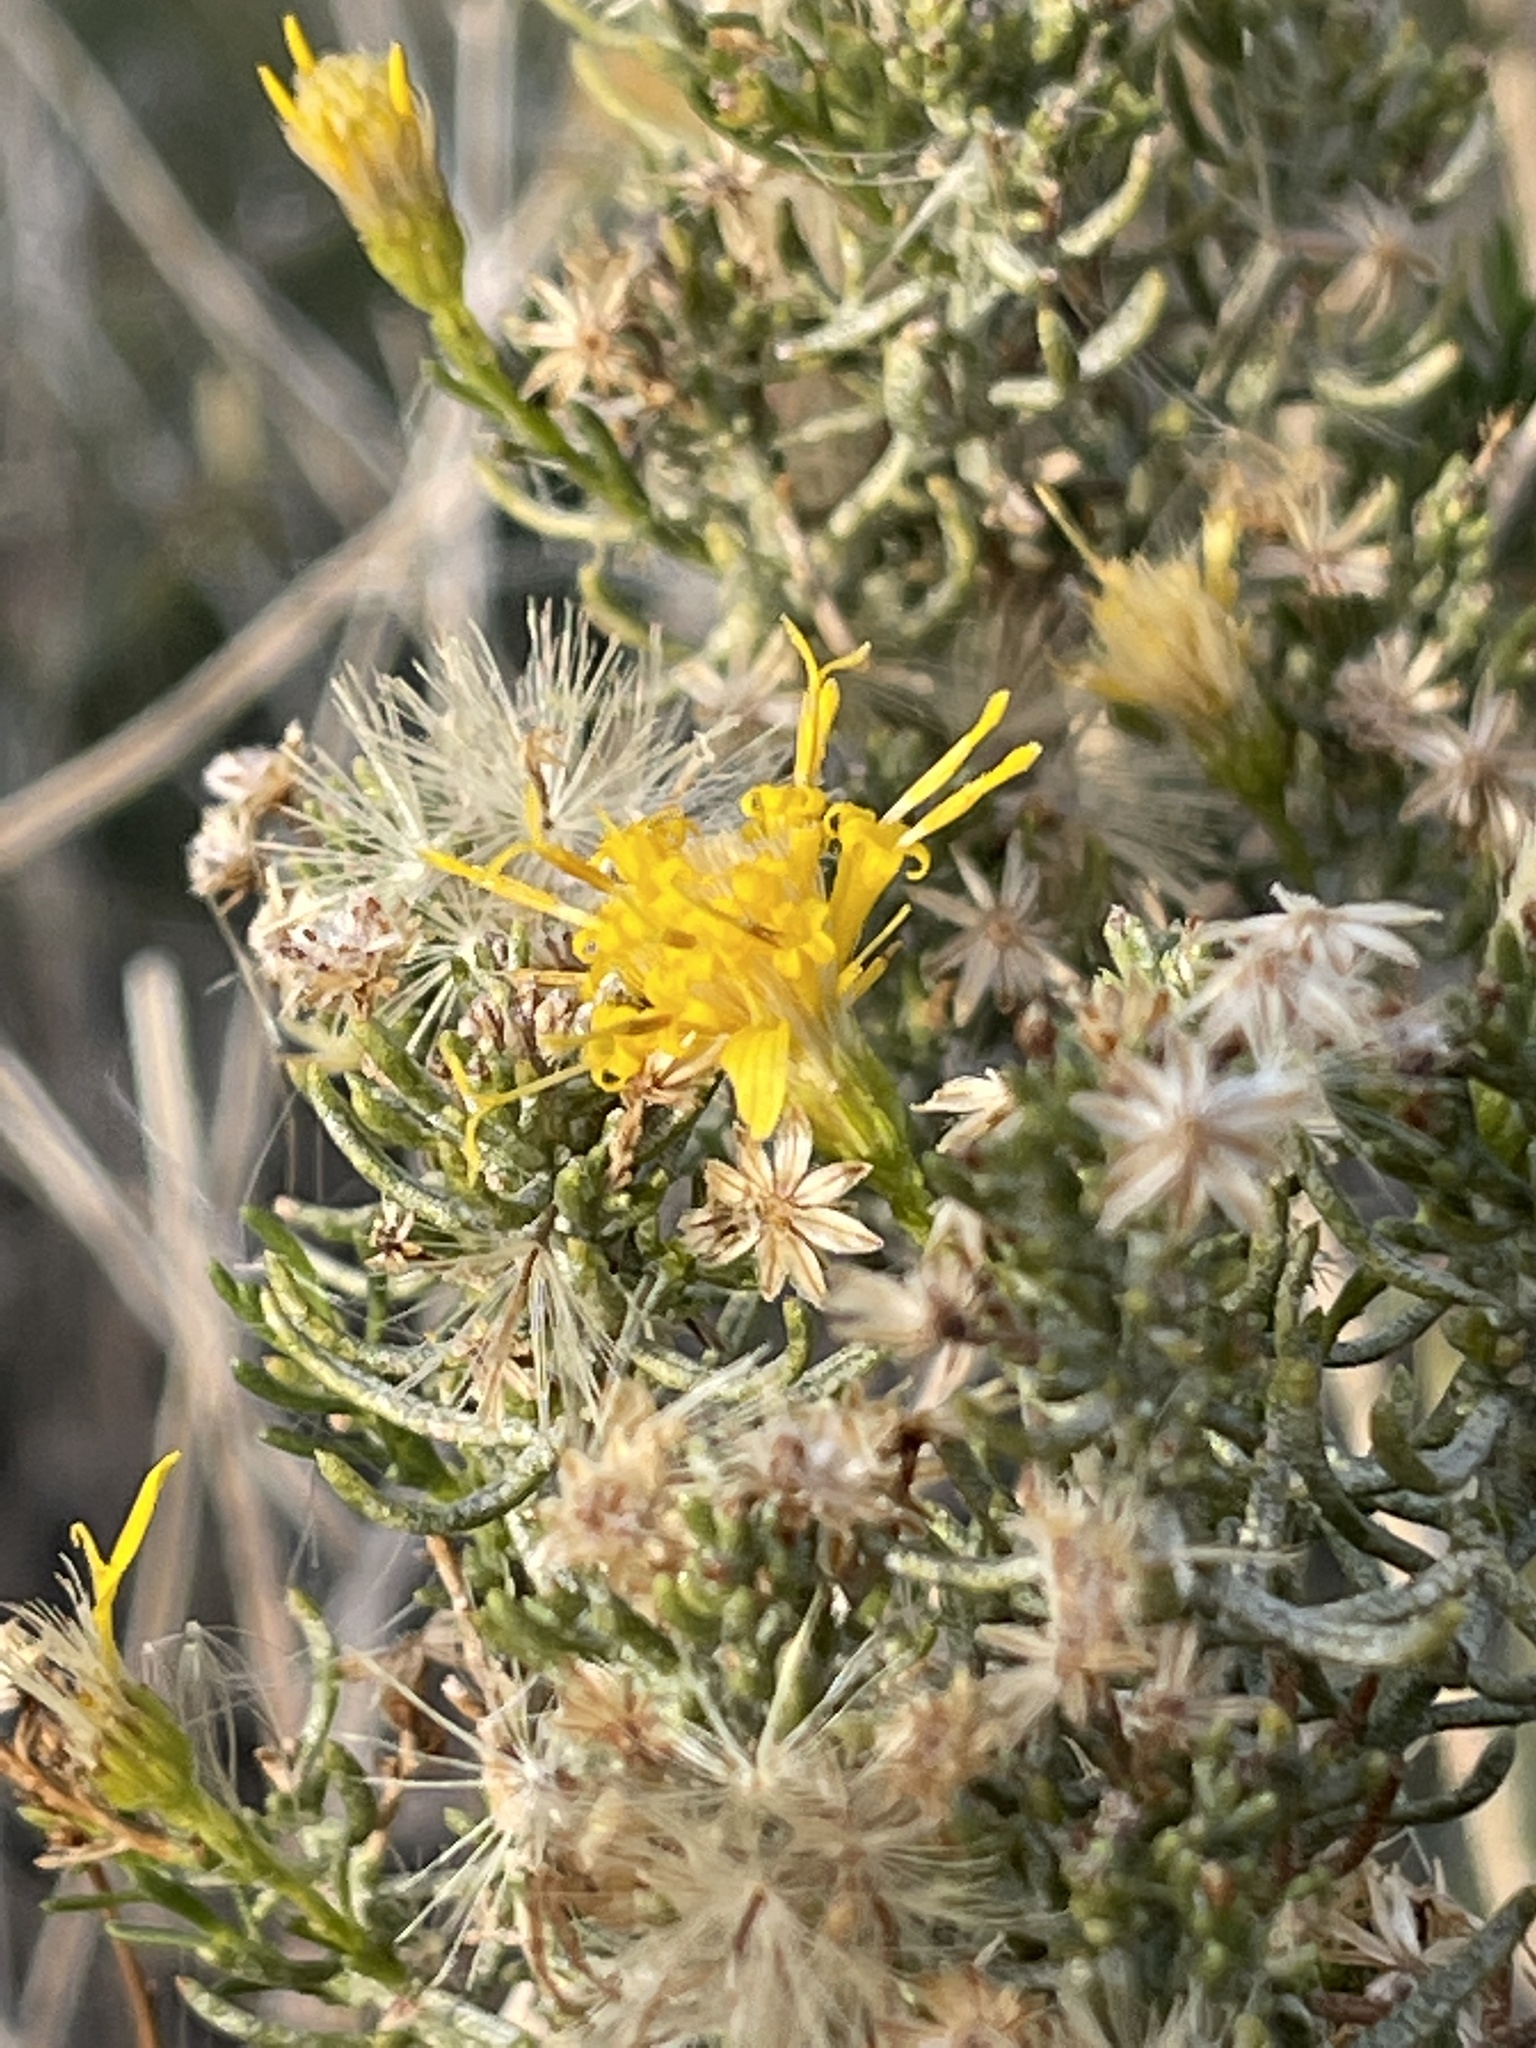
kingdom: Plantae
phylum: Tracheophyta
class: Magnoliopsida
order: Asterales
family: Asteraceae
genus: Ericameria
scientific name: Ericameria laricifolia
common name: Turpentine-bush
